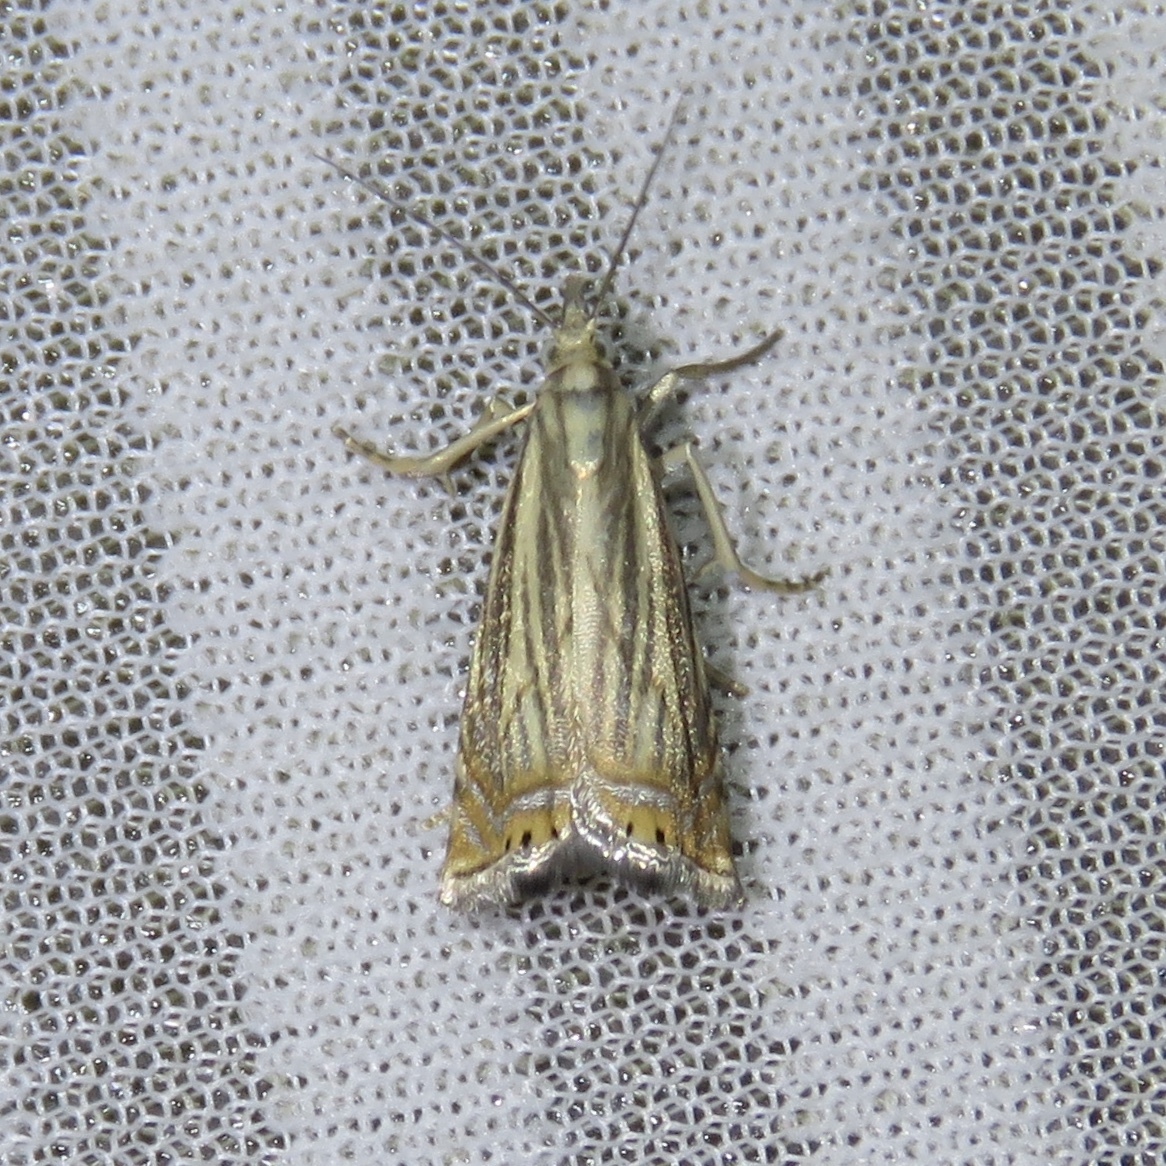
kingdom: Animalia
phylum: Arthropoda
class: Insecta
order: Lepidoptera
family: Crambidae
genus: Chrysoteuchia
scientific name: Chrysoteuchia topiarius
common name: Topiary grass-veneer
